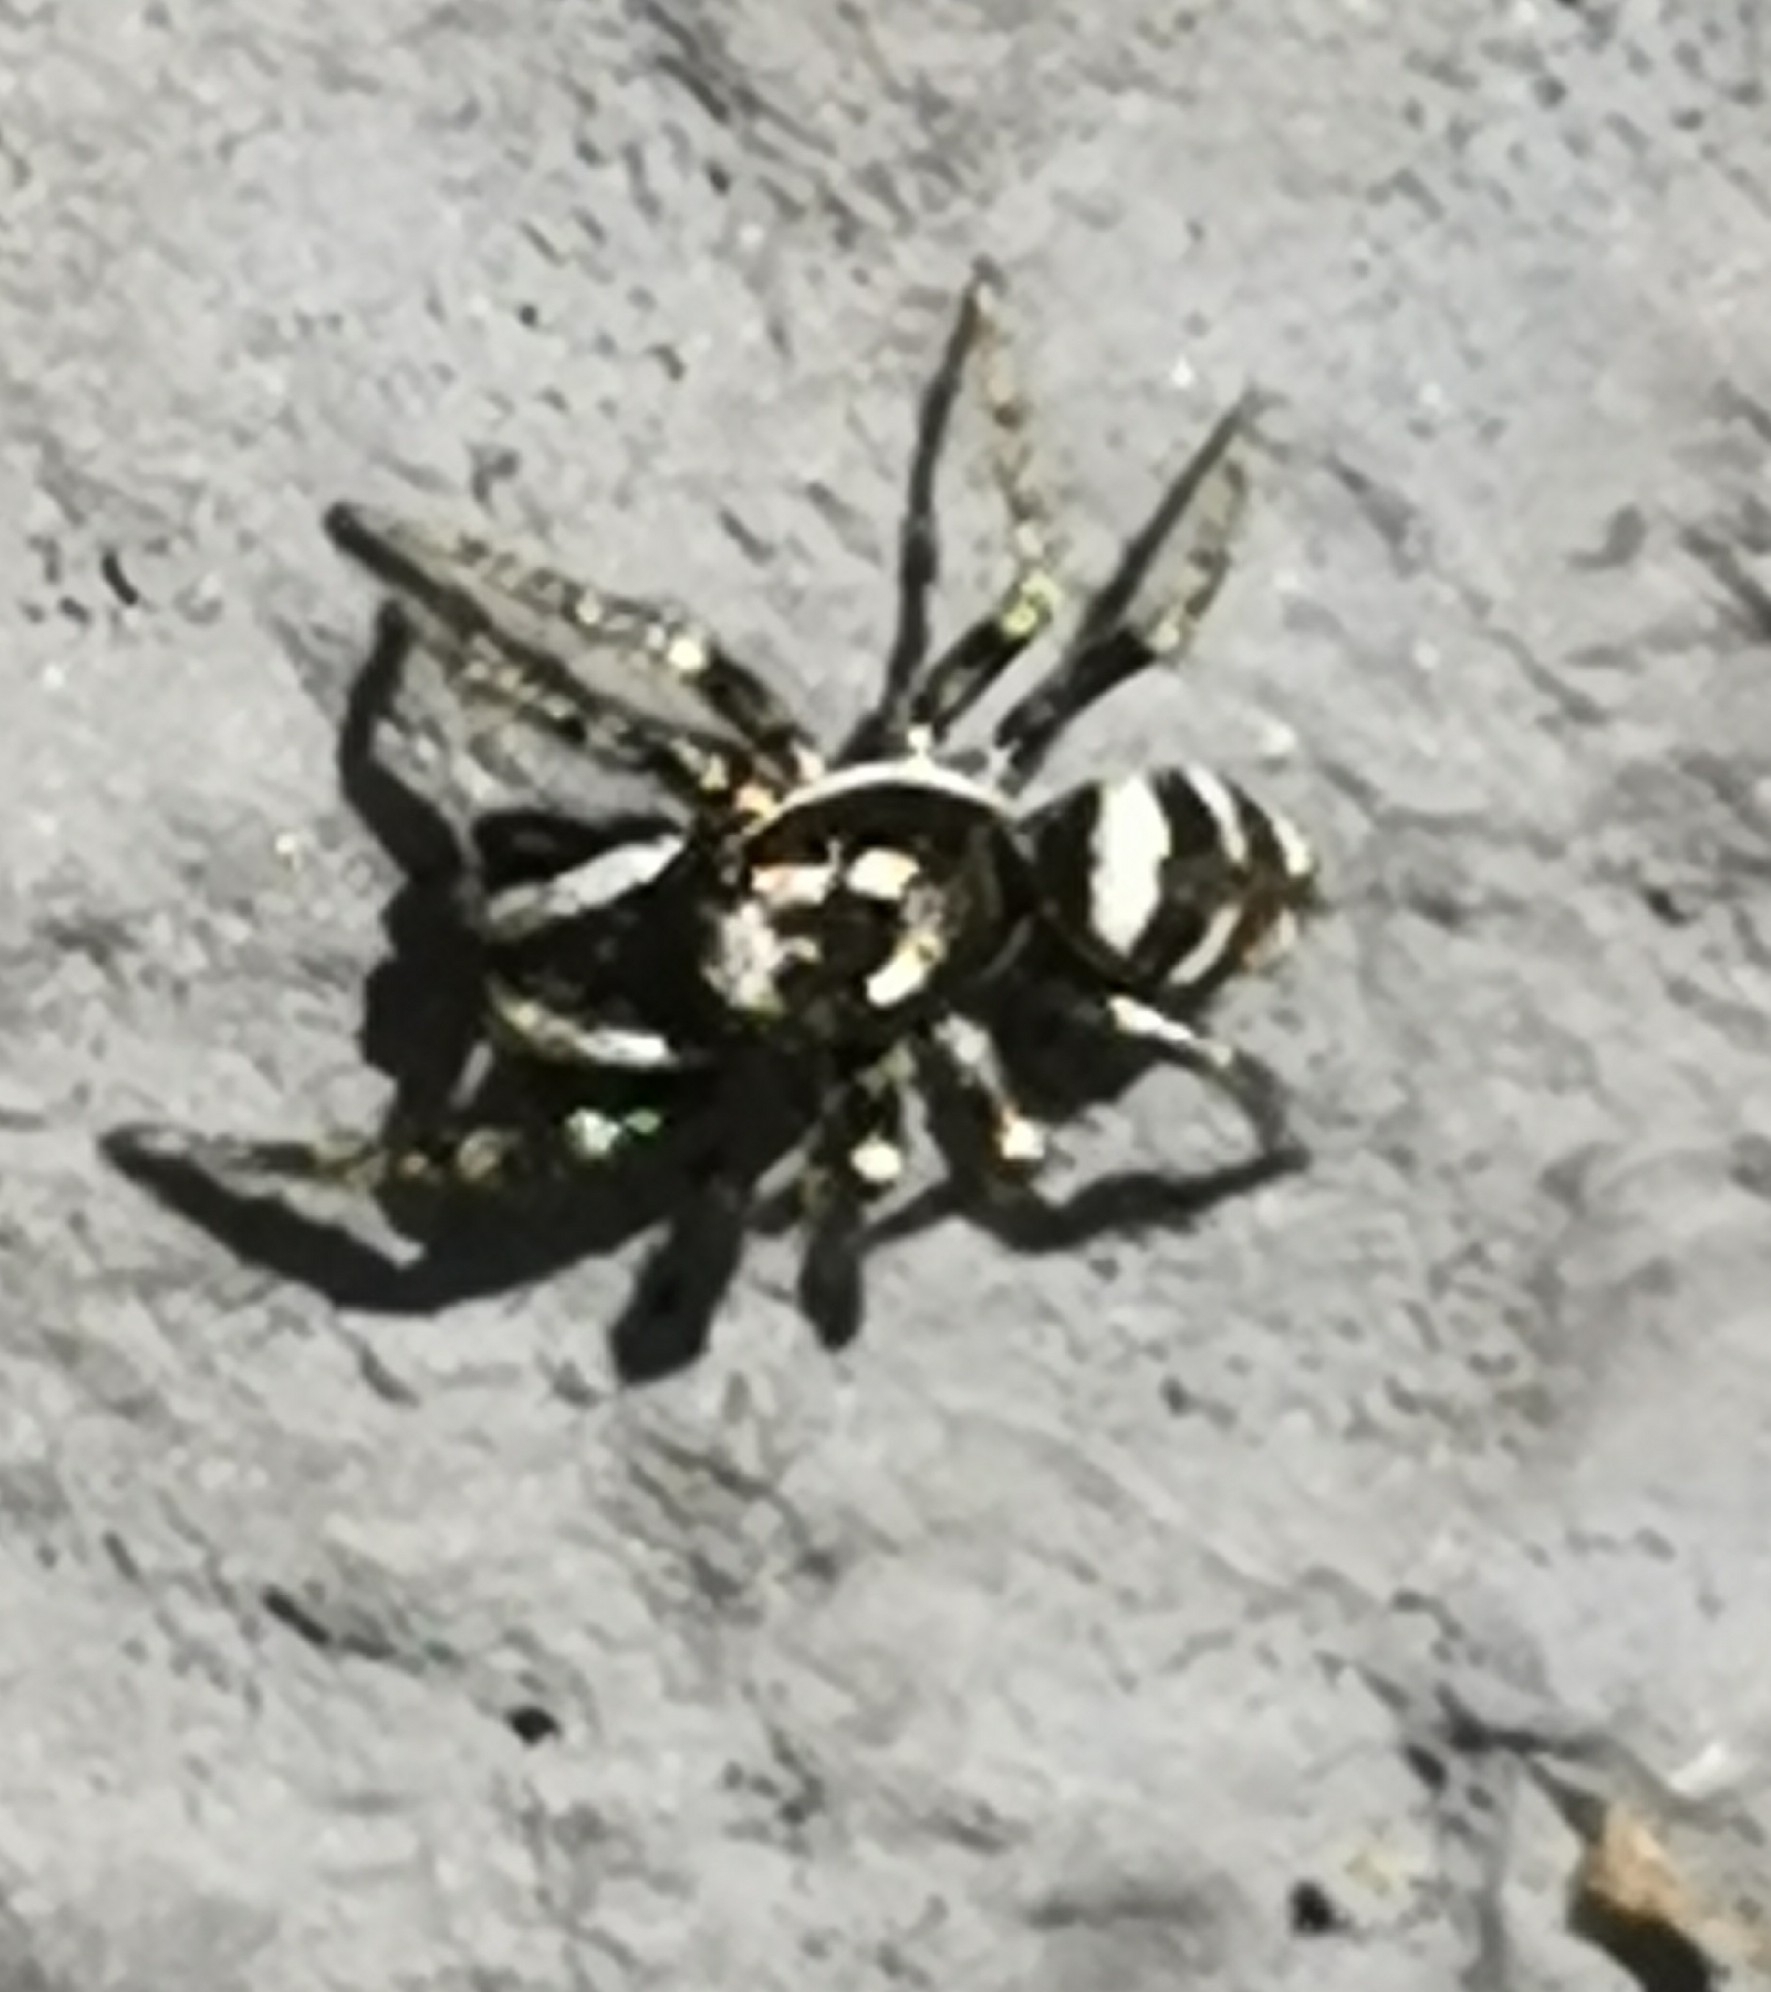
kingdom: Animalia
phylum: Arthropoda
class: Arachnida
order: Araneae
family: Salticidae
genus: Salticus
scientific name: Salticus scenicus
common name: Zebra jumper
